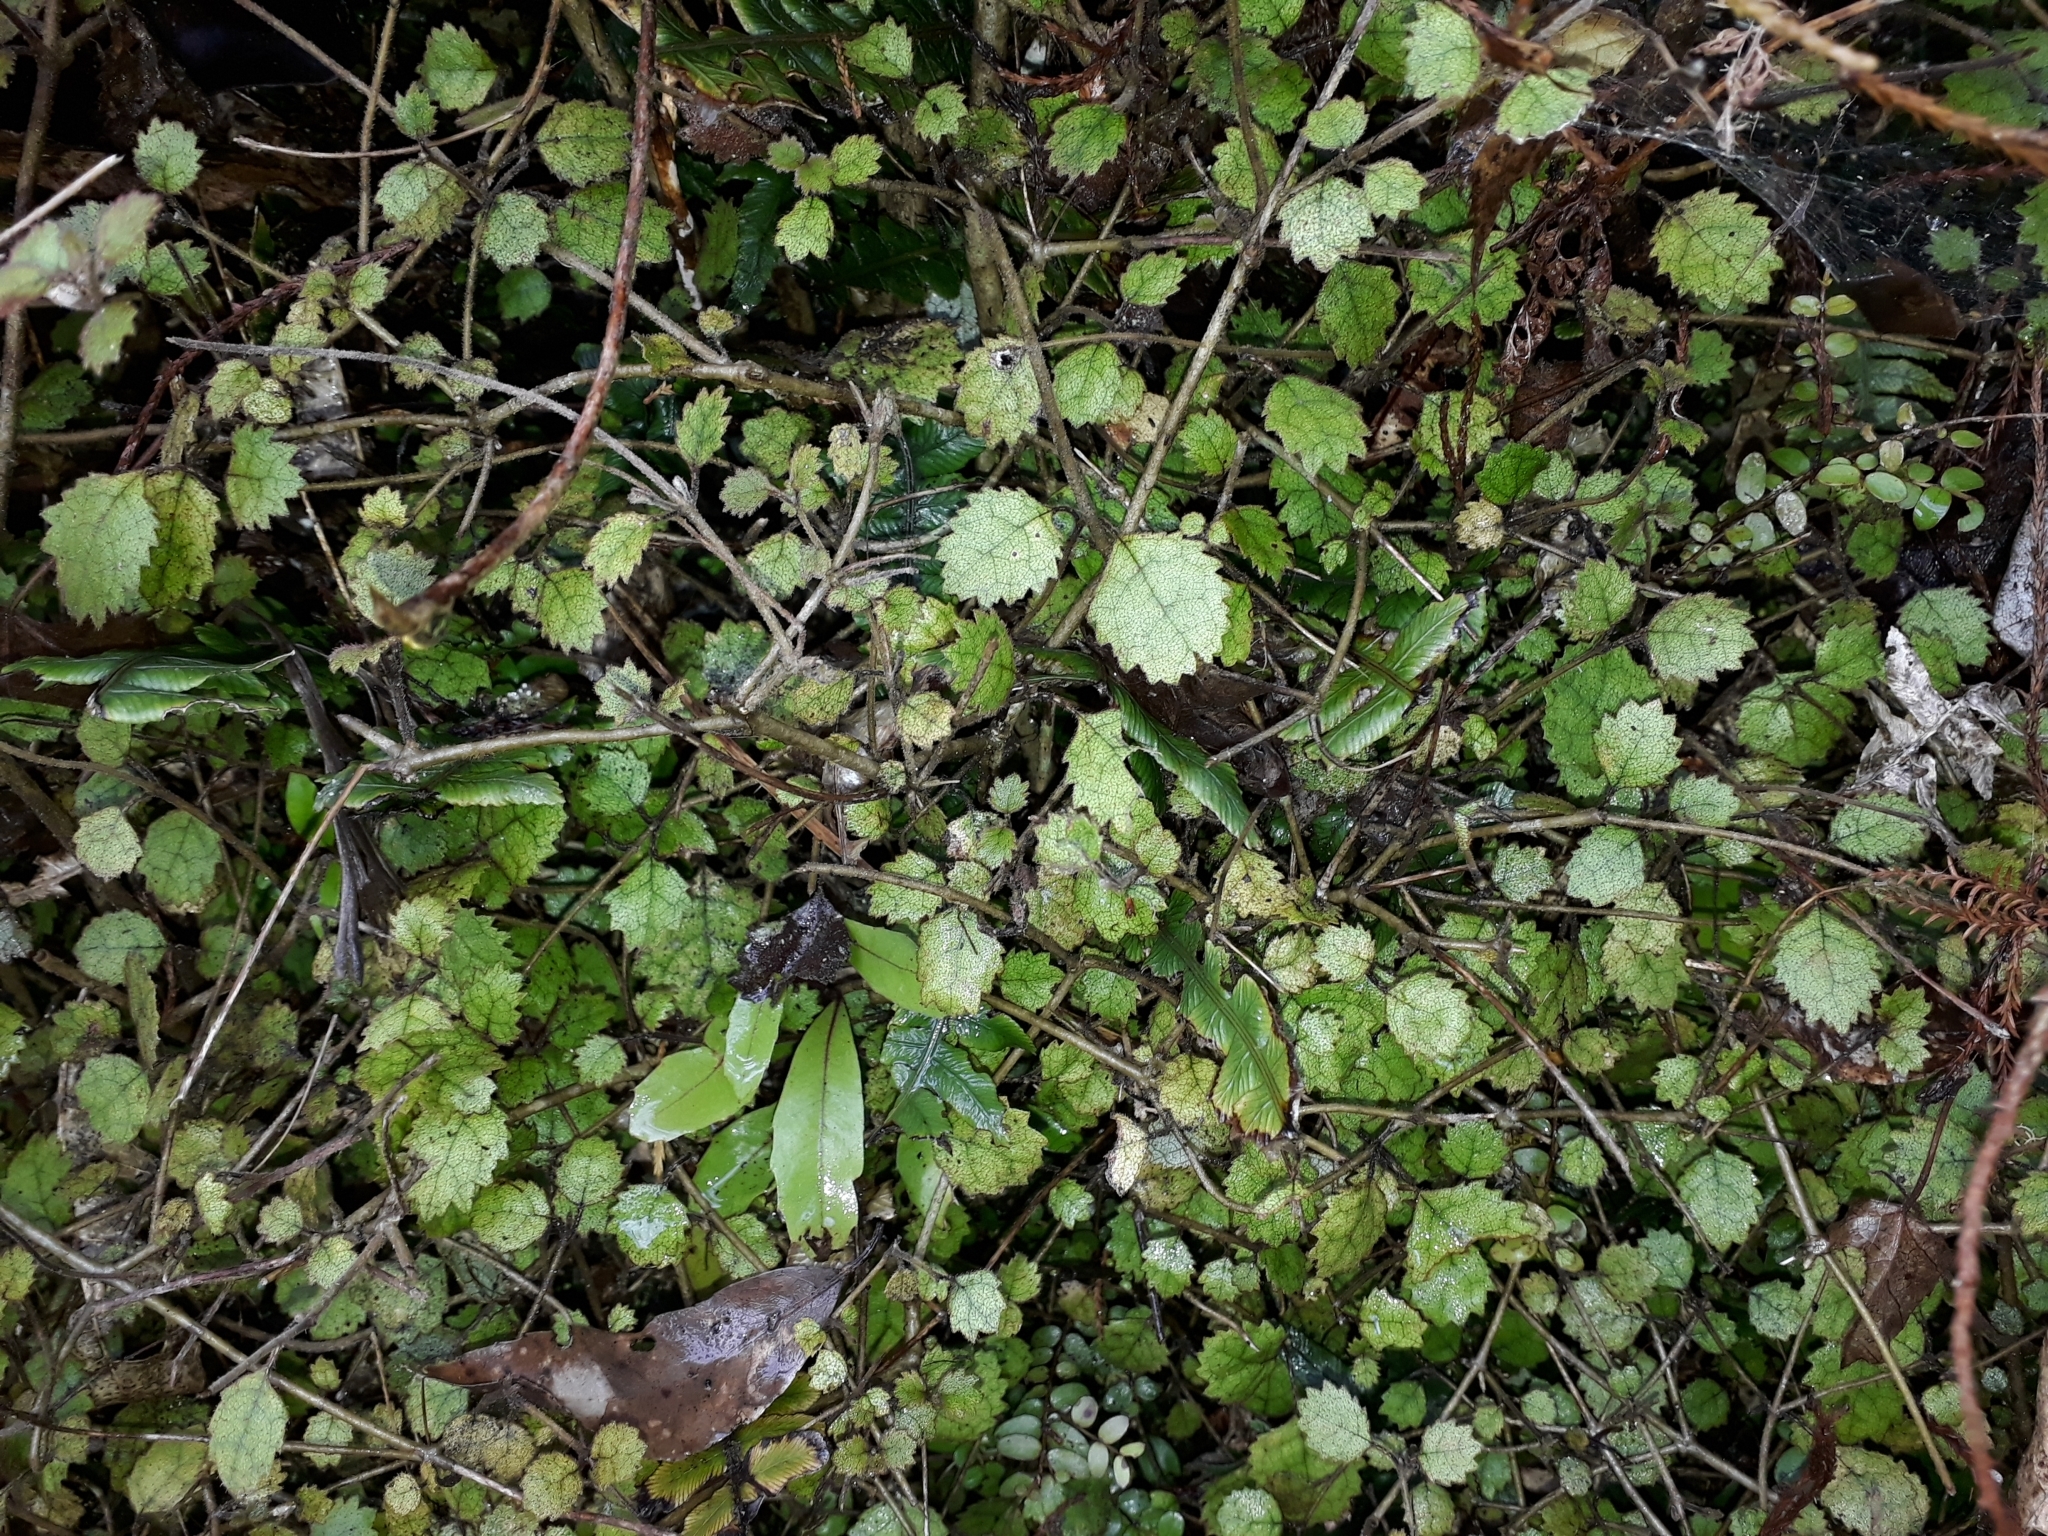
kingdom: Plantae
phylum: Tracheophyta
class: Magnoliopsida
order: Lamiales
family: Gesneriaceae
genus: Rhabdothamnus
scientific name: Rhabdothamnus solandri
